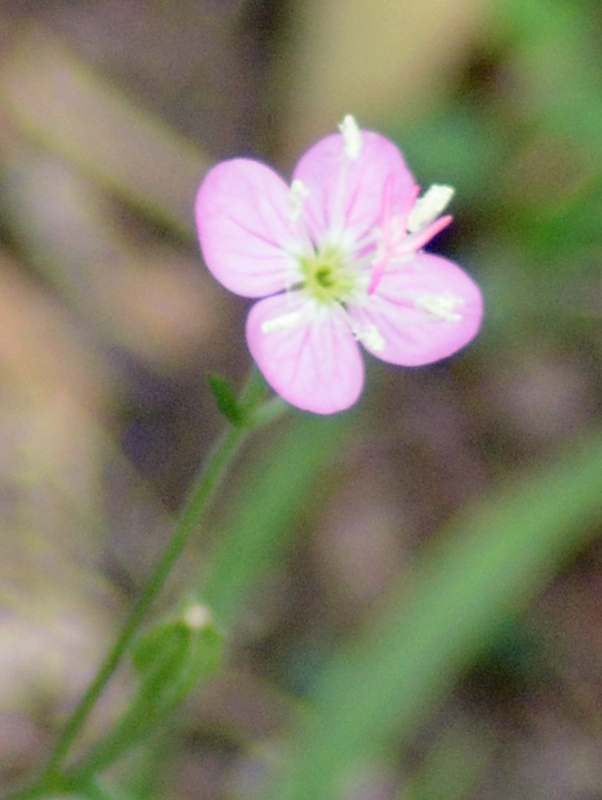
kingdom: Plantae
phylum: Tracheophyta
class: Magnoliopsida
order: Myrtales
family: Onagraceae
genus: Oenothera
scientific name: Oenothera rosea
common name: Rosy evening-primrose
